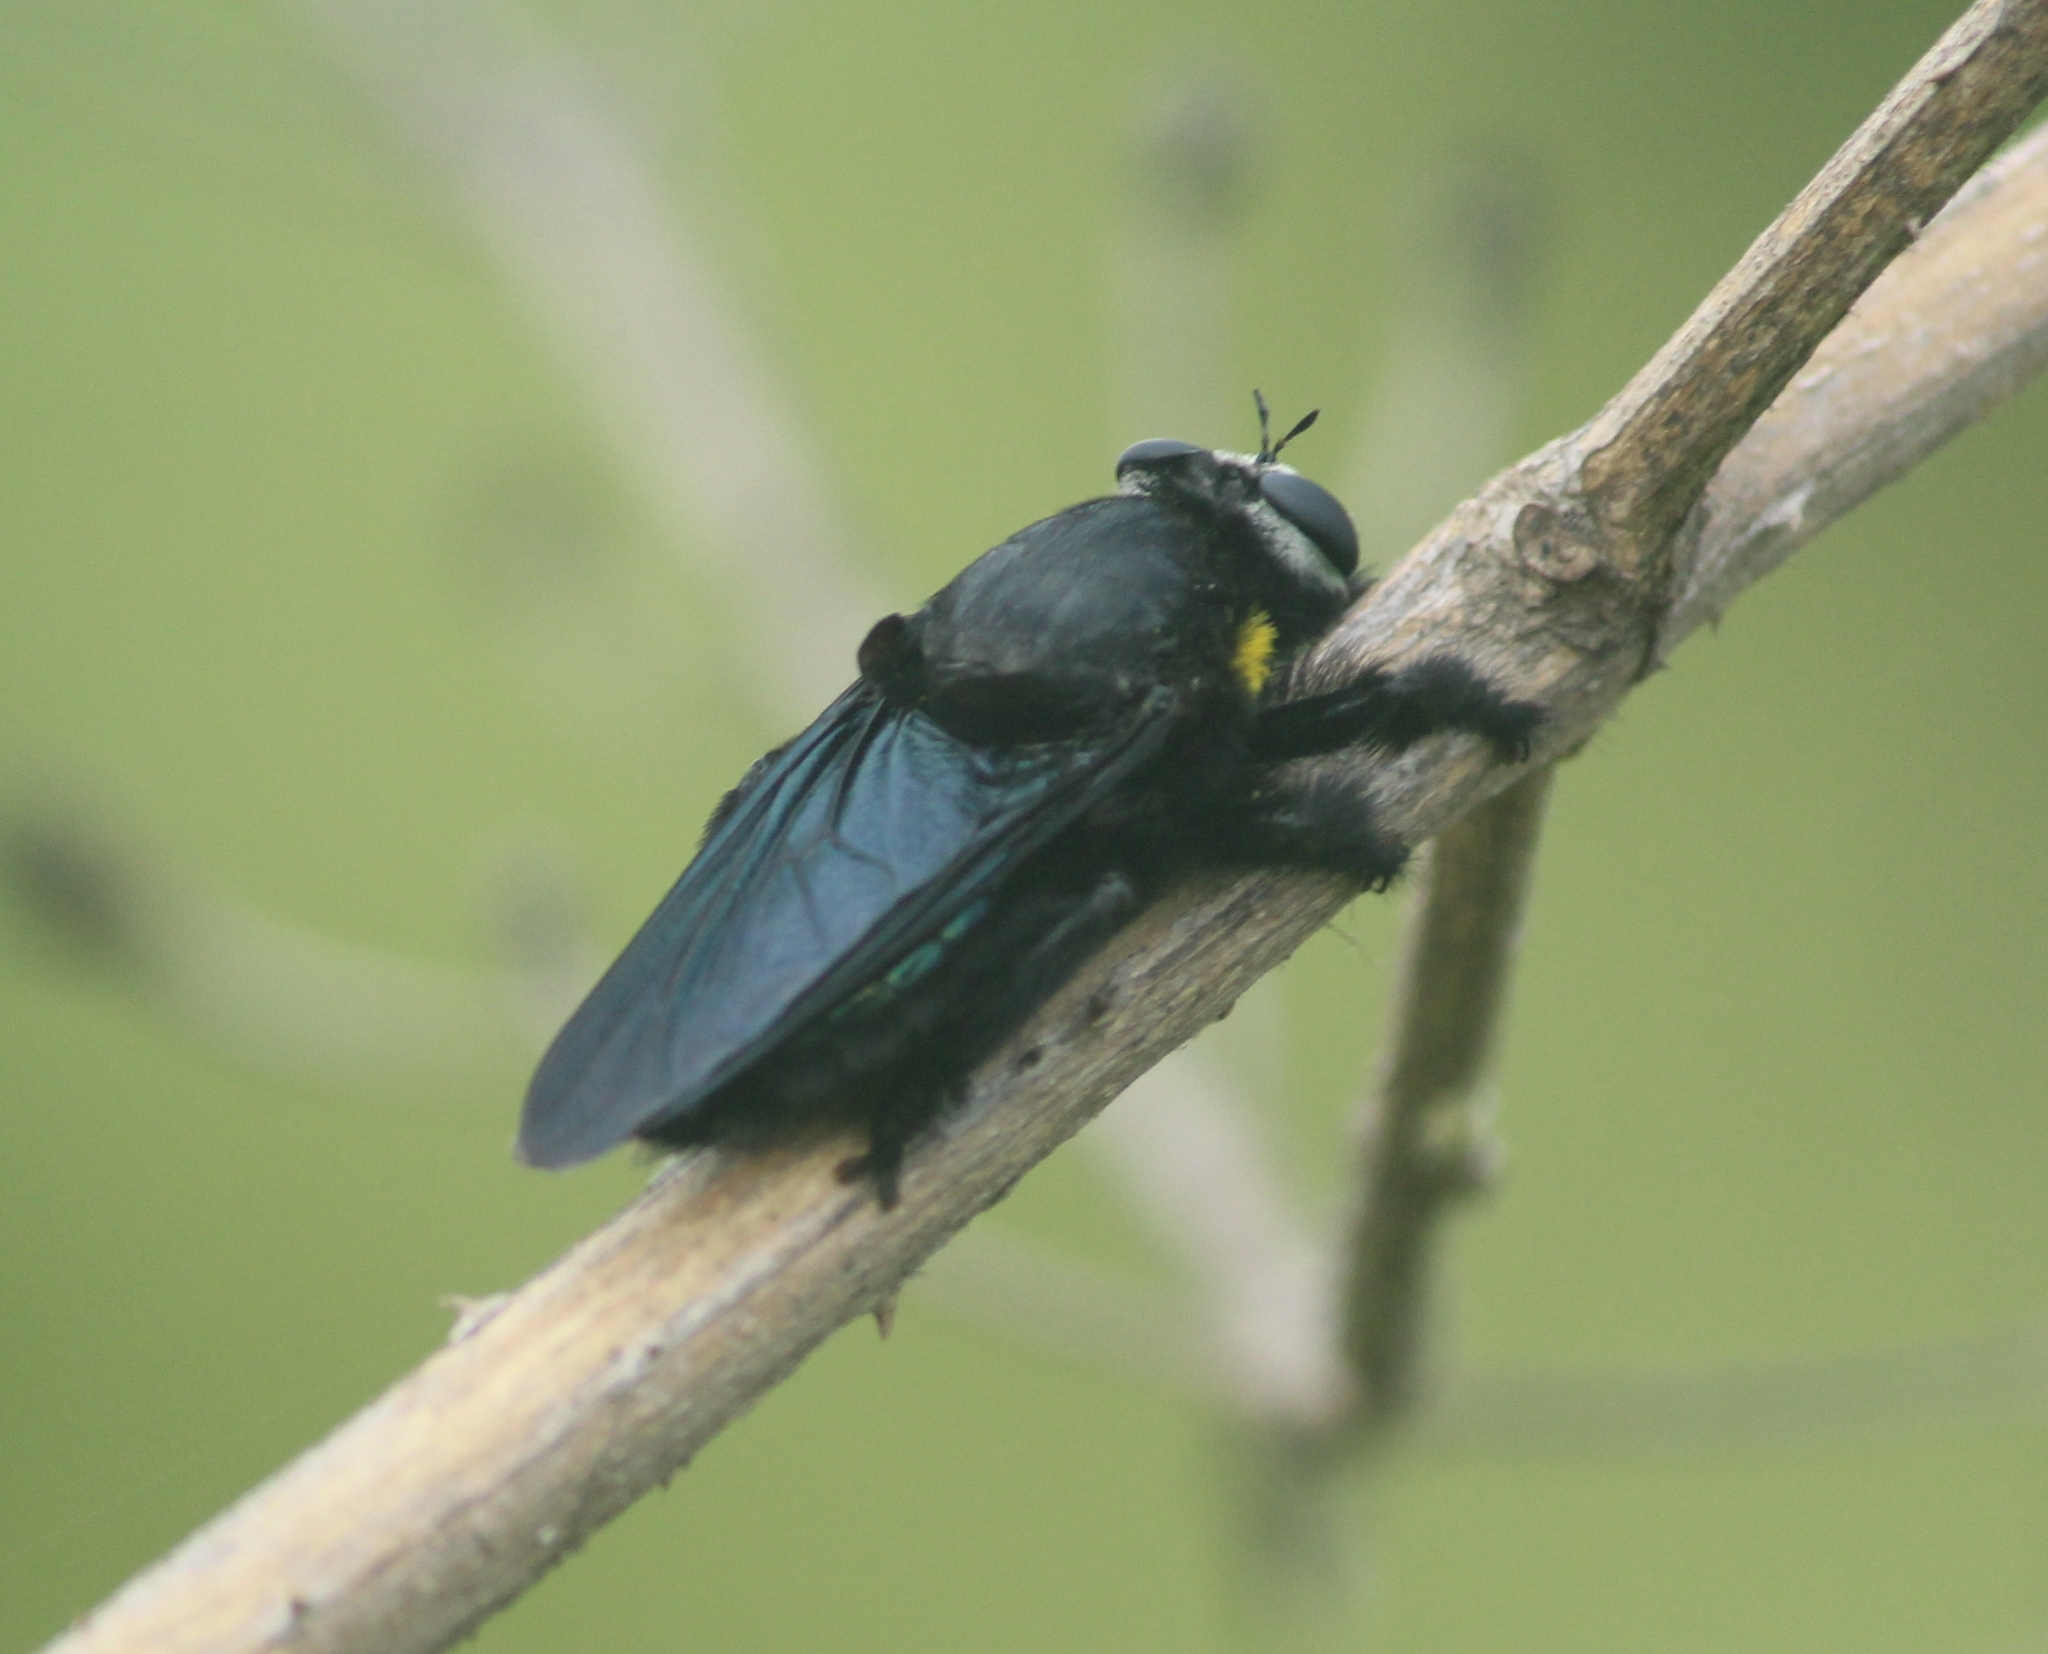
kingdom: Animalia
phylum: Arthropoda
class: Insecta
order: Diptera
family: Asilidae
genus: Hyperechia
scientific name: Hyperechia xylocopiformis
